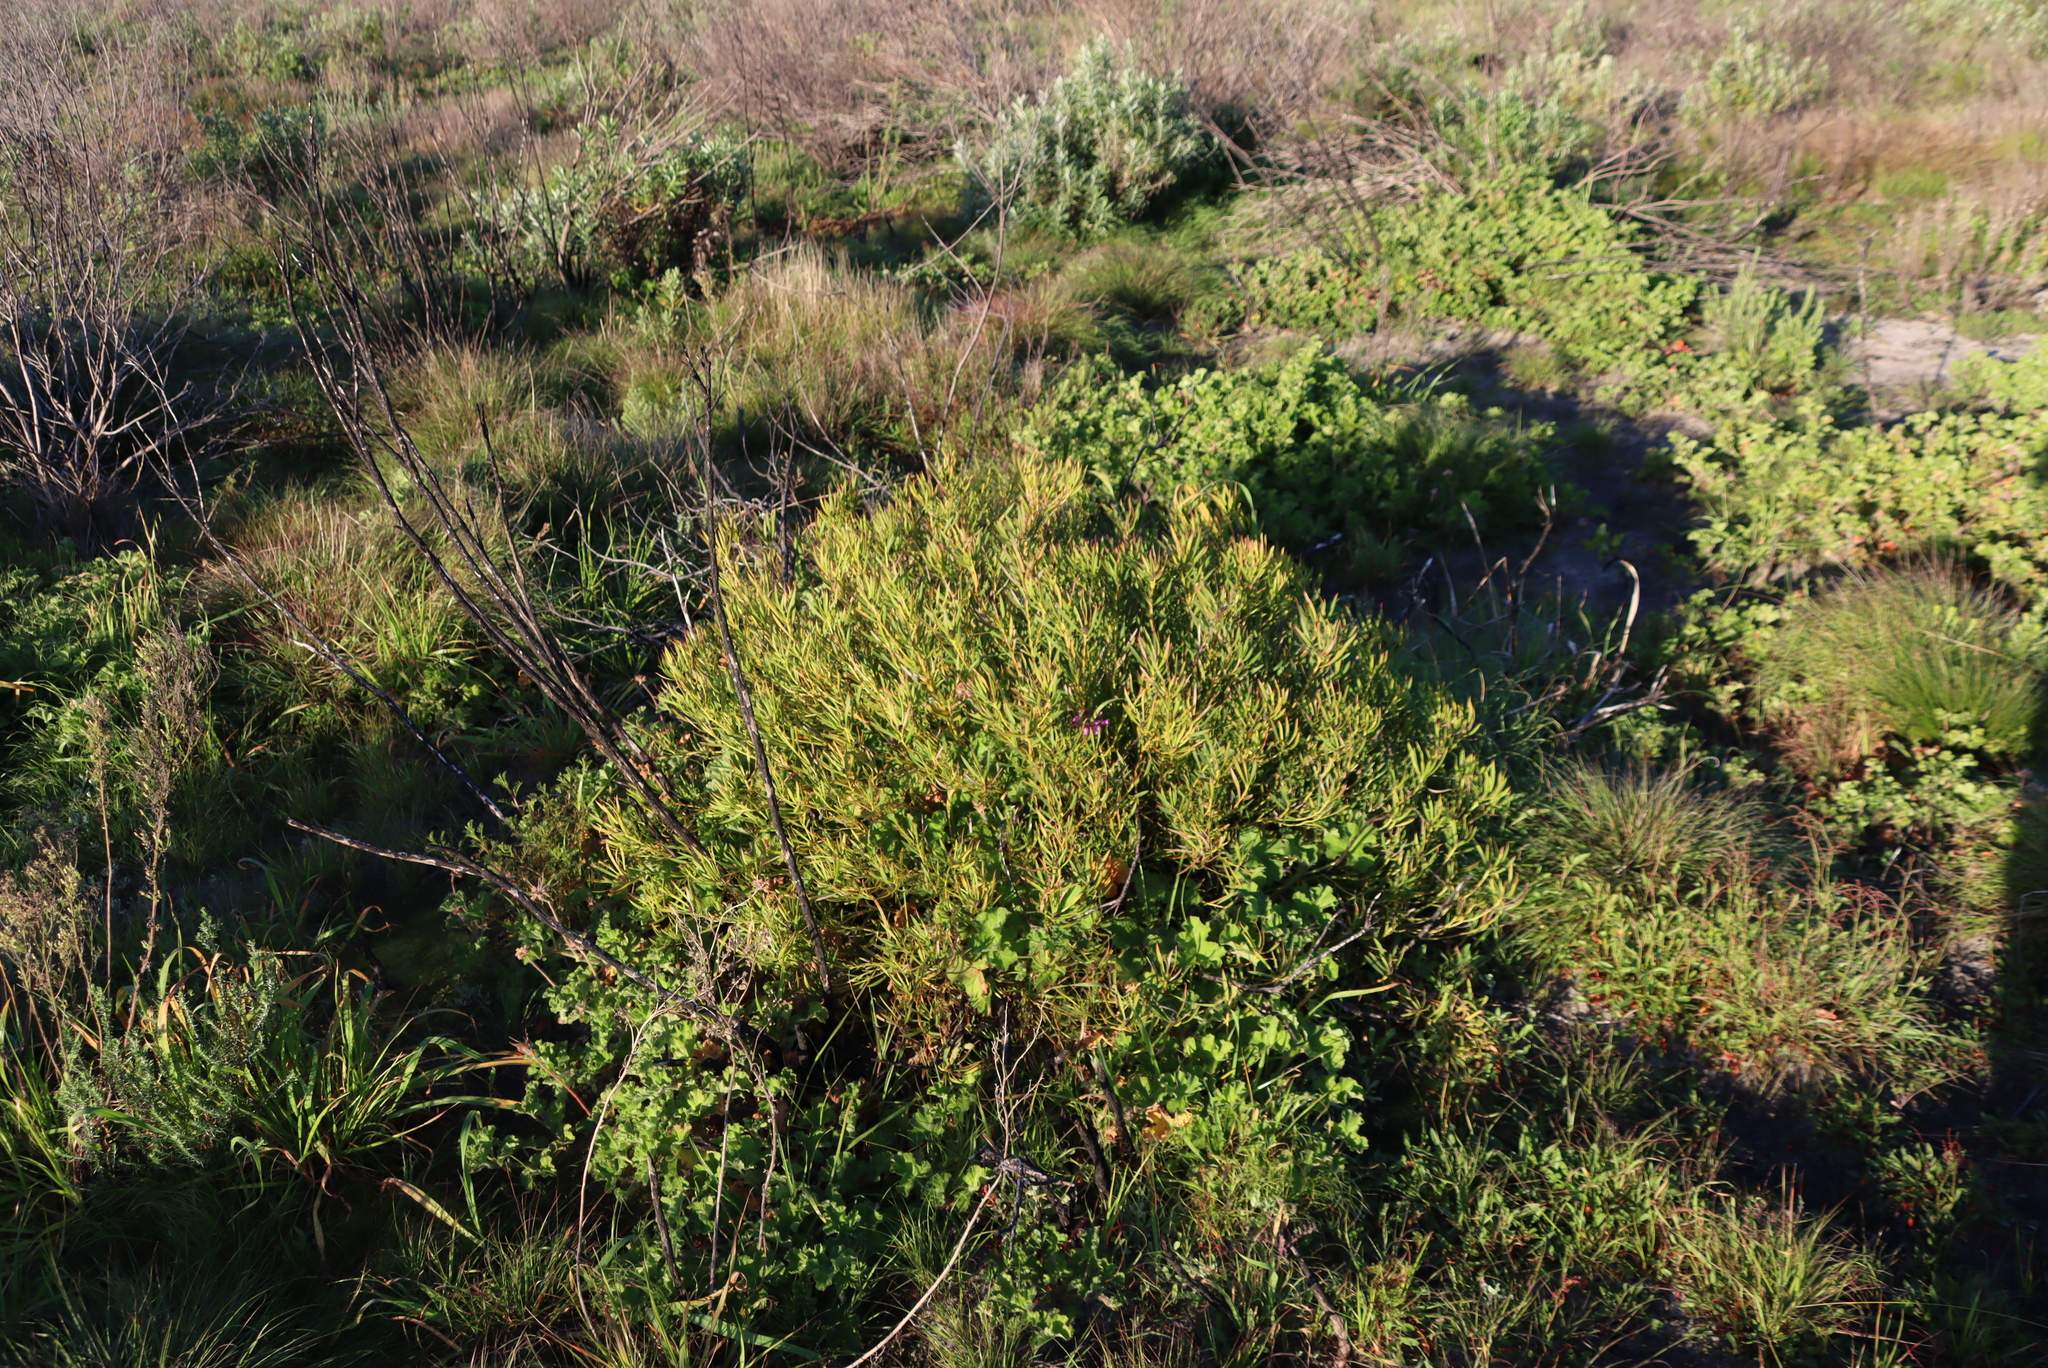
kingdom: Plantae
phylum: Tracheophyta
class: Magnoliopsida
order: Proteales
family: Proteaceae
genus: Leucadendron
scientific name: Leucadendron salignum
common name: Common sunshine conebush
